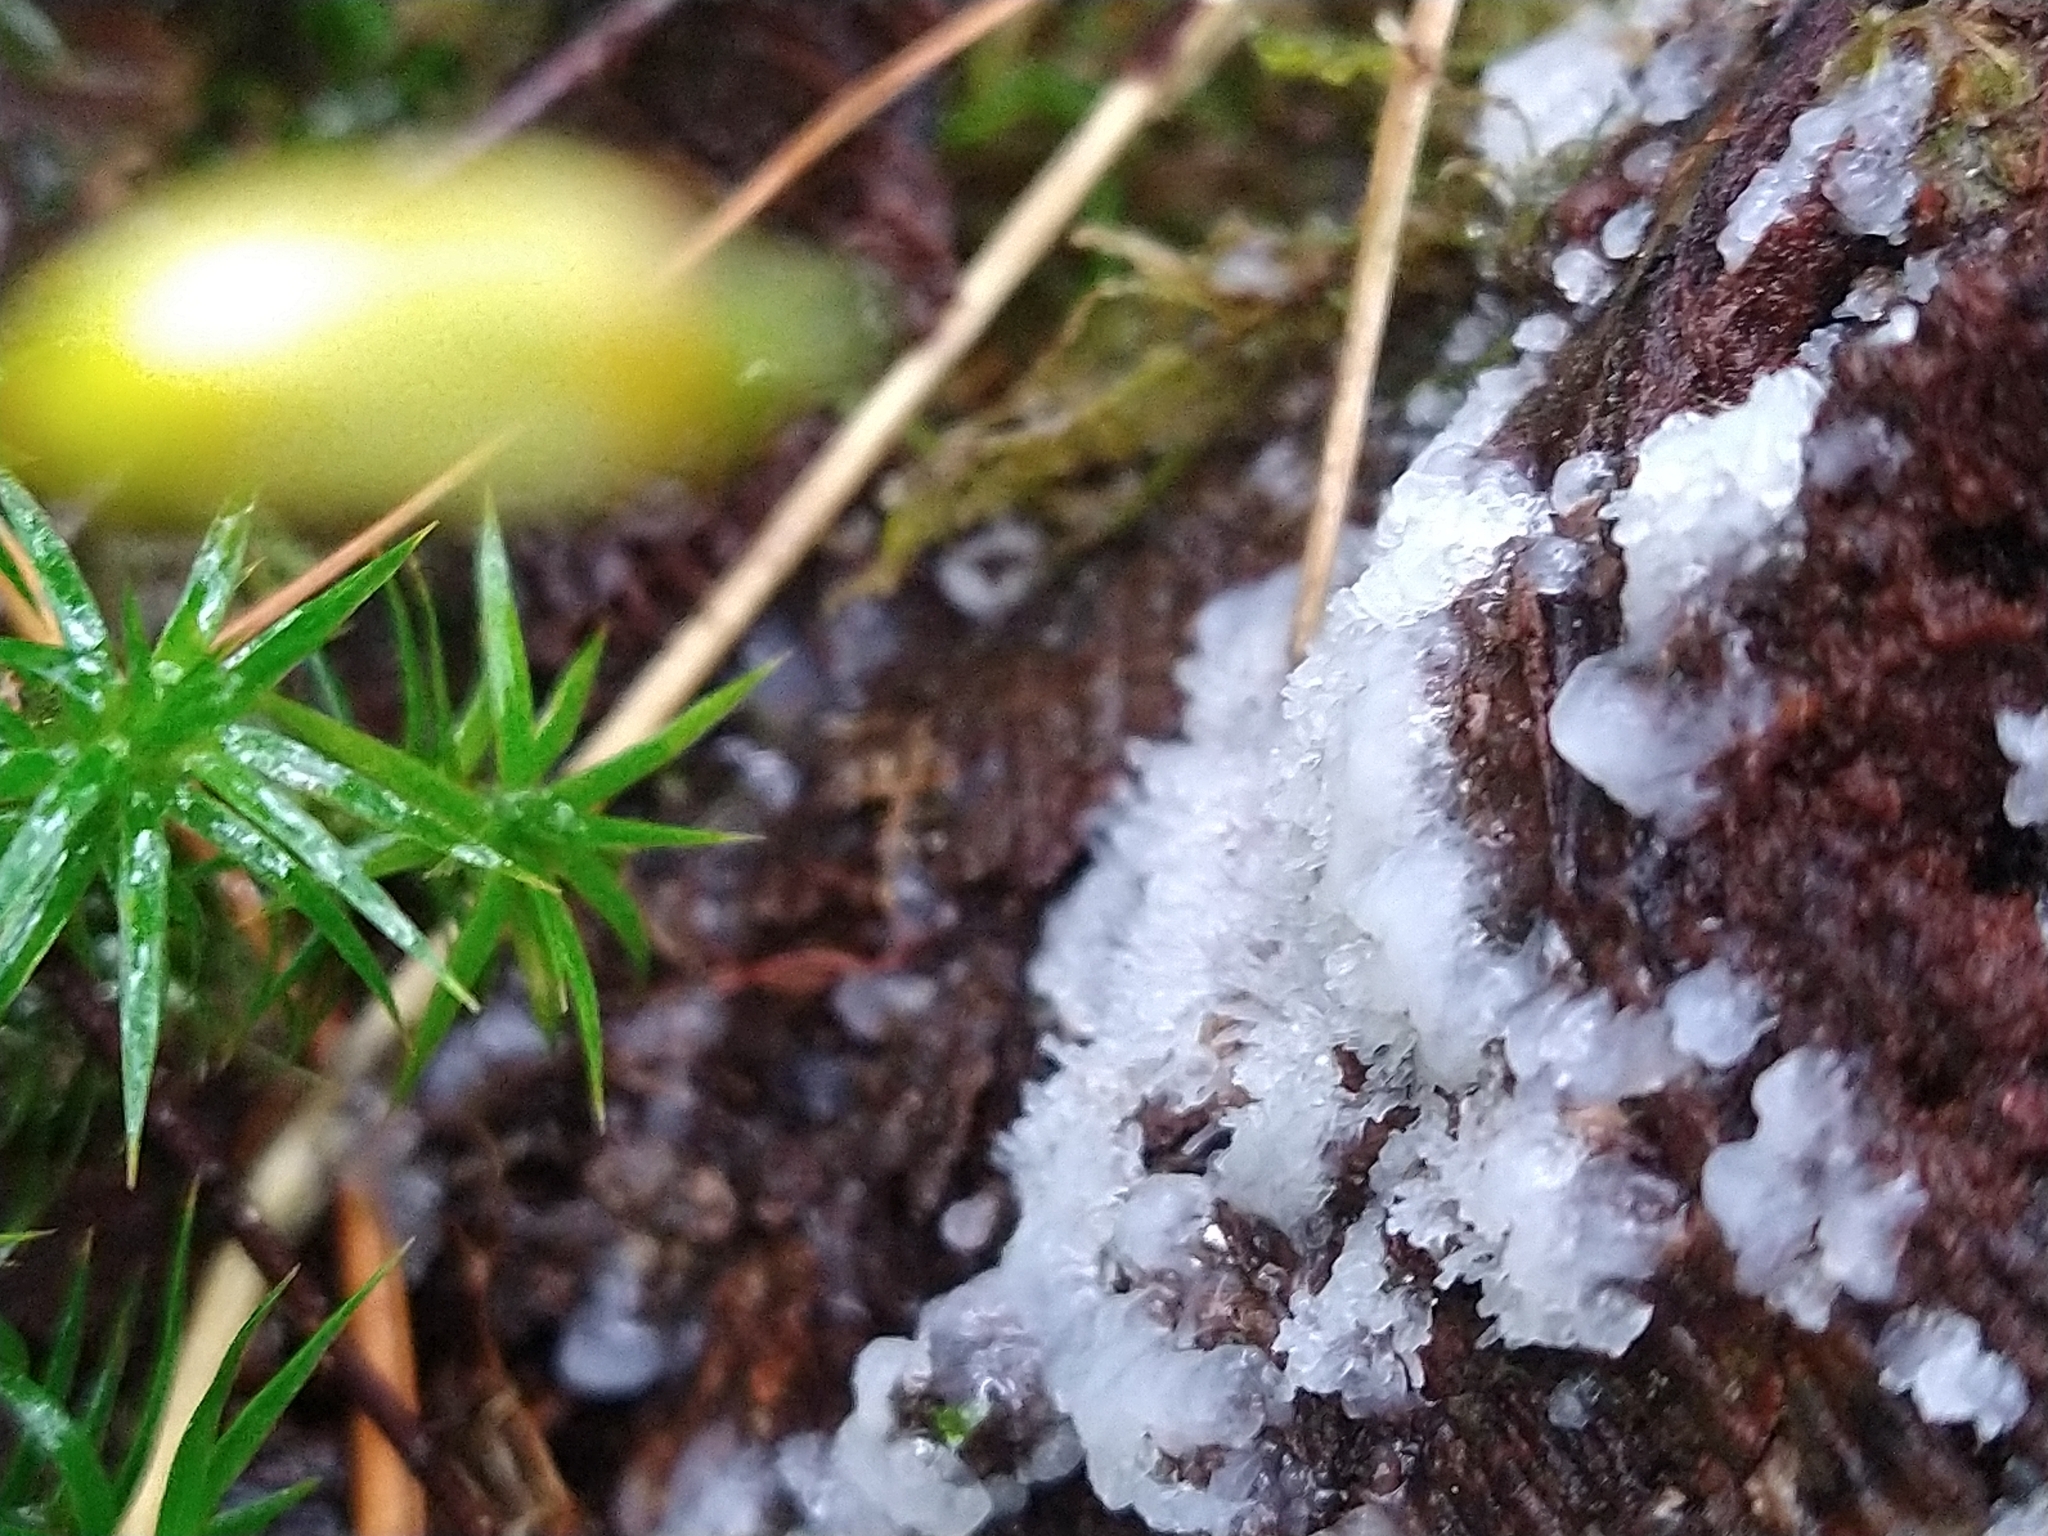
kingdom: Protozoa
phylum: Mycetozoa
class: Protosteliomycetes
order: Ceratiomyxales
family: Ceratiomyxaceae
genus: Ceratiomyxa
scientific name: Ceratiomyxa fruticulosa
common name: Honeycomb coral slime mold
